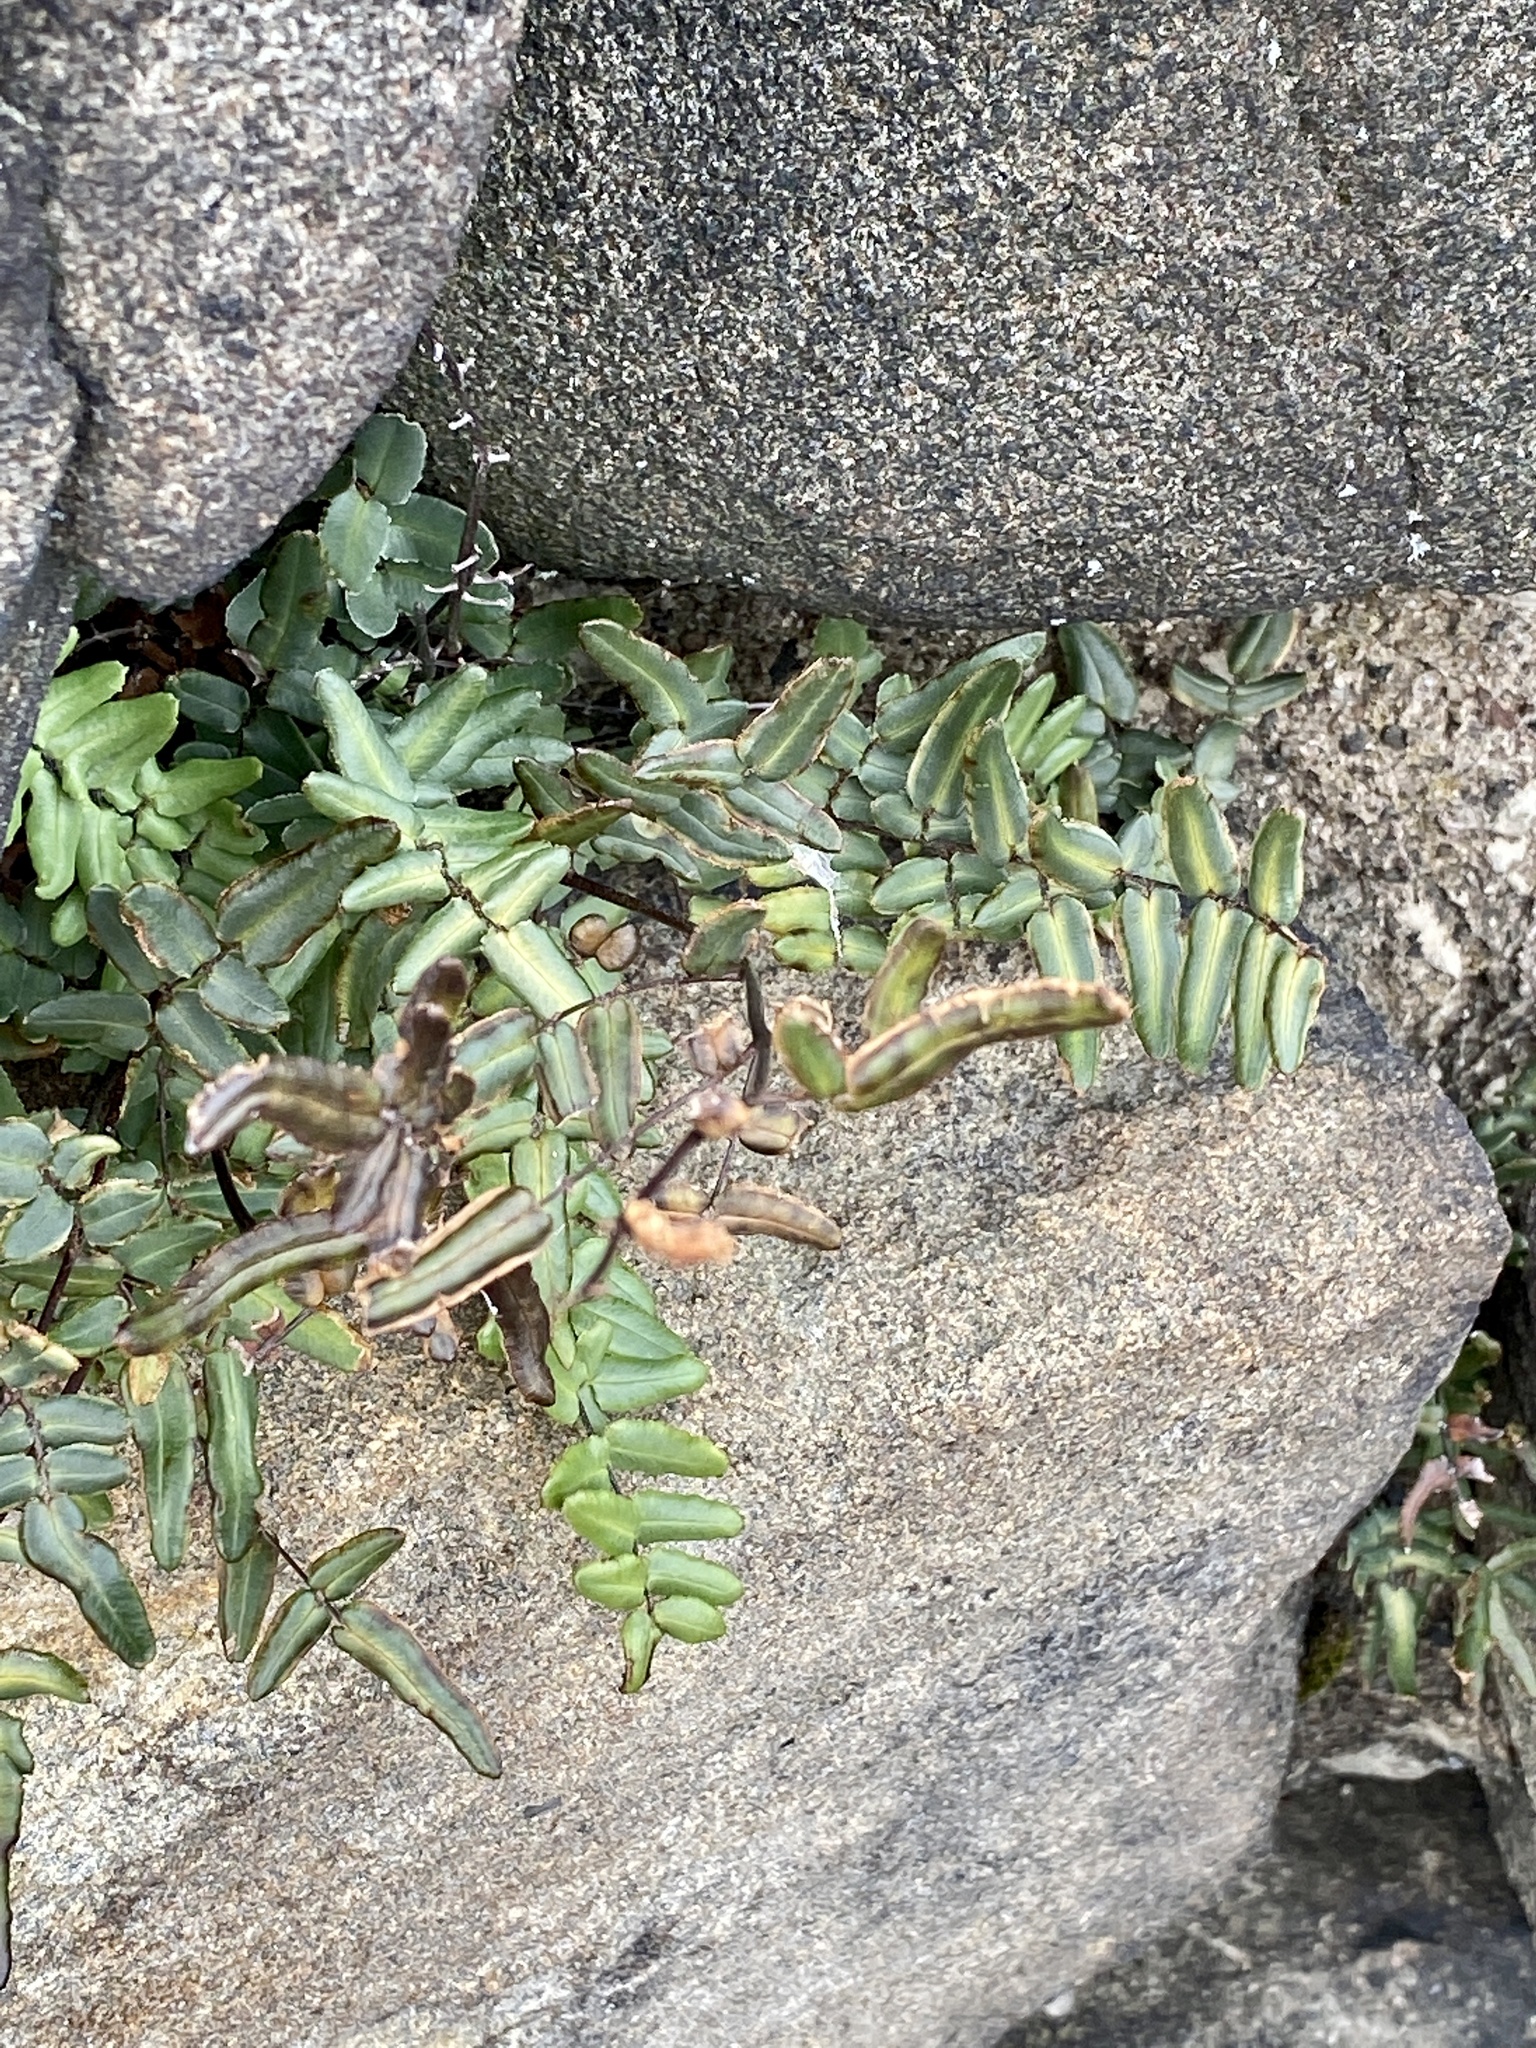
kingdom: Plantae
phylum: Tracheophyta
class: Polypodiopsida
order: Polypodiales
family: Pteridaceae
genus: Pellaea
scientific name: Pellaea atropurpurea
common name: Hairy cliffbrake
